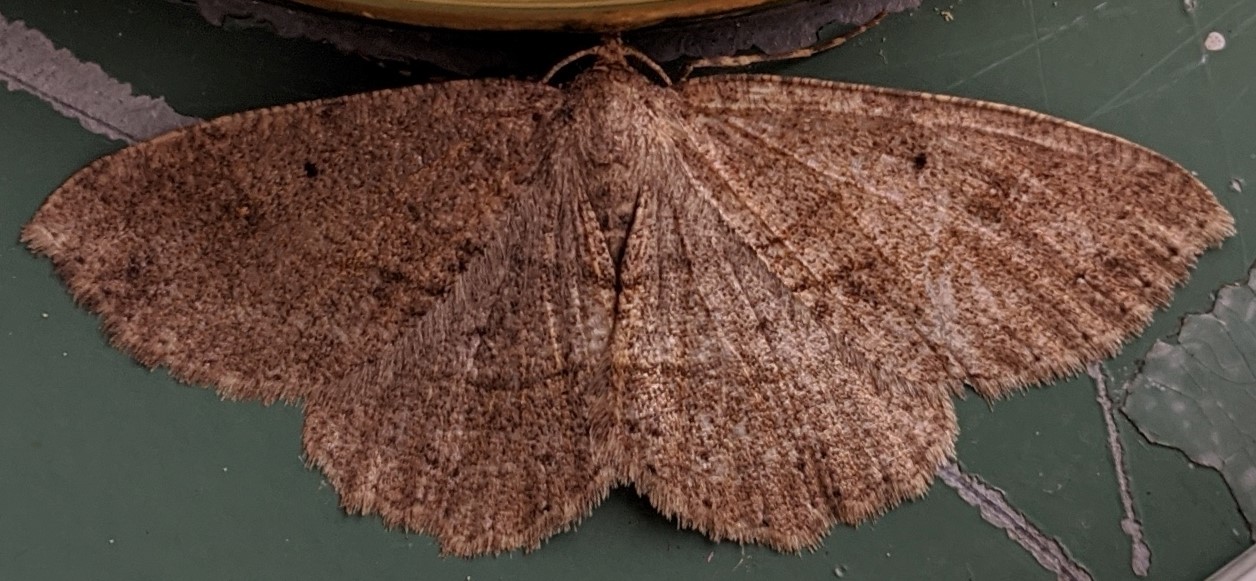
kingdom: Animalia
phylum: Arthropoda
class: Insecta
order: Lepidoptera
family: Geometridae
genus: Melanolophia
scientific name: Melanolophia signataria
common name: Signate melanolophia
